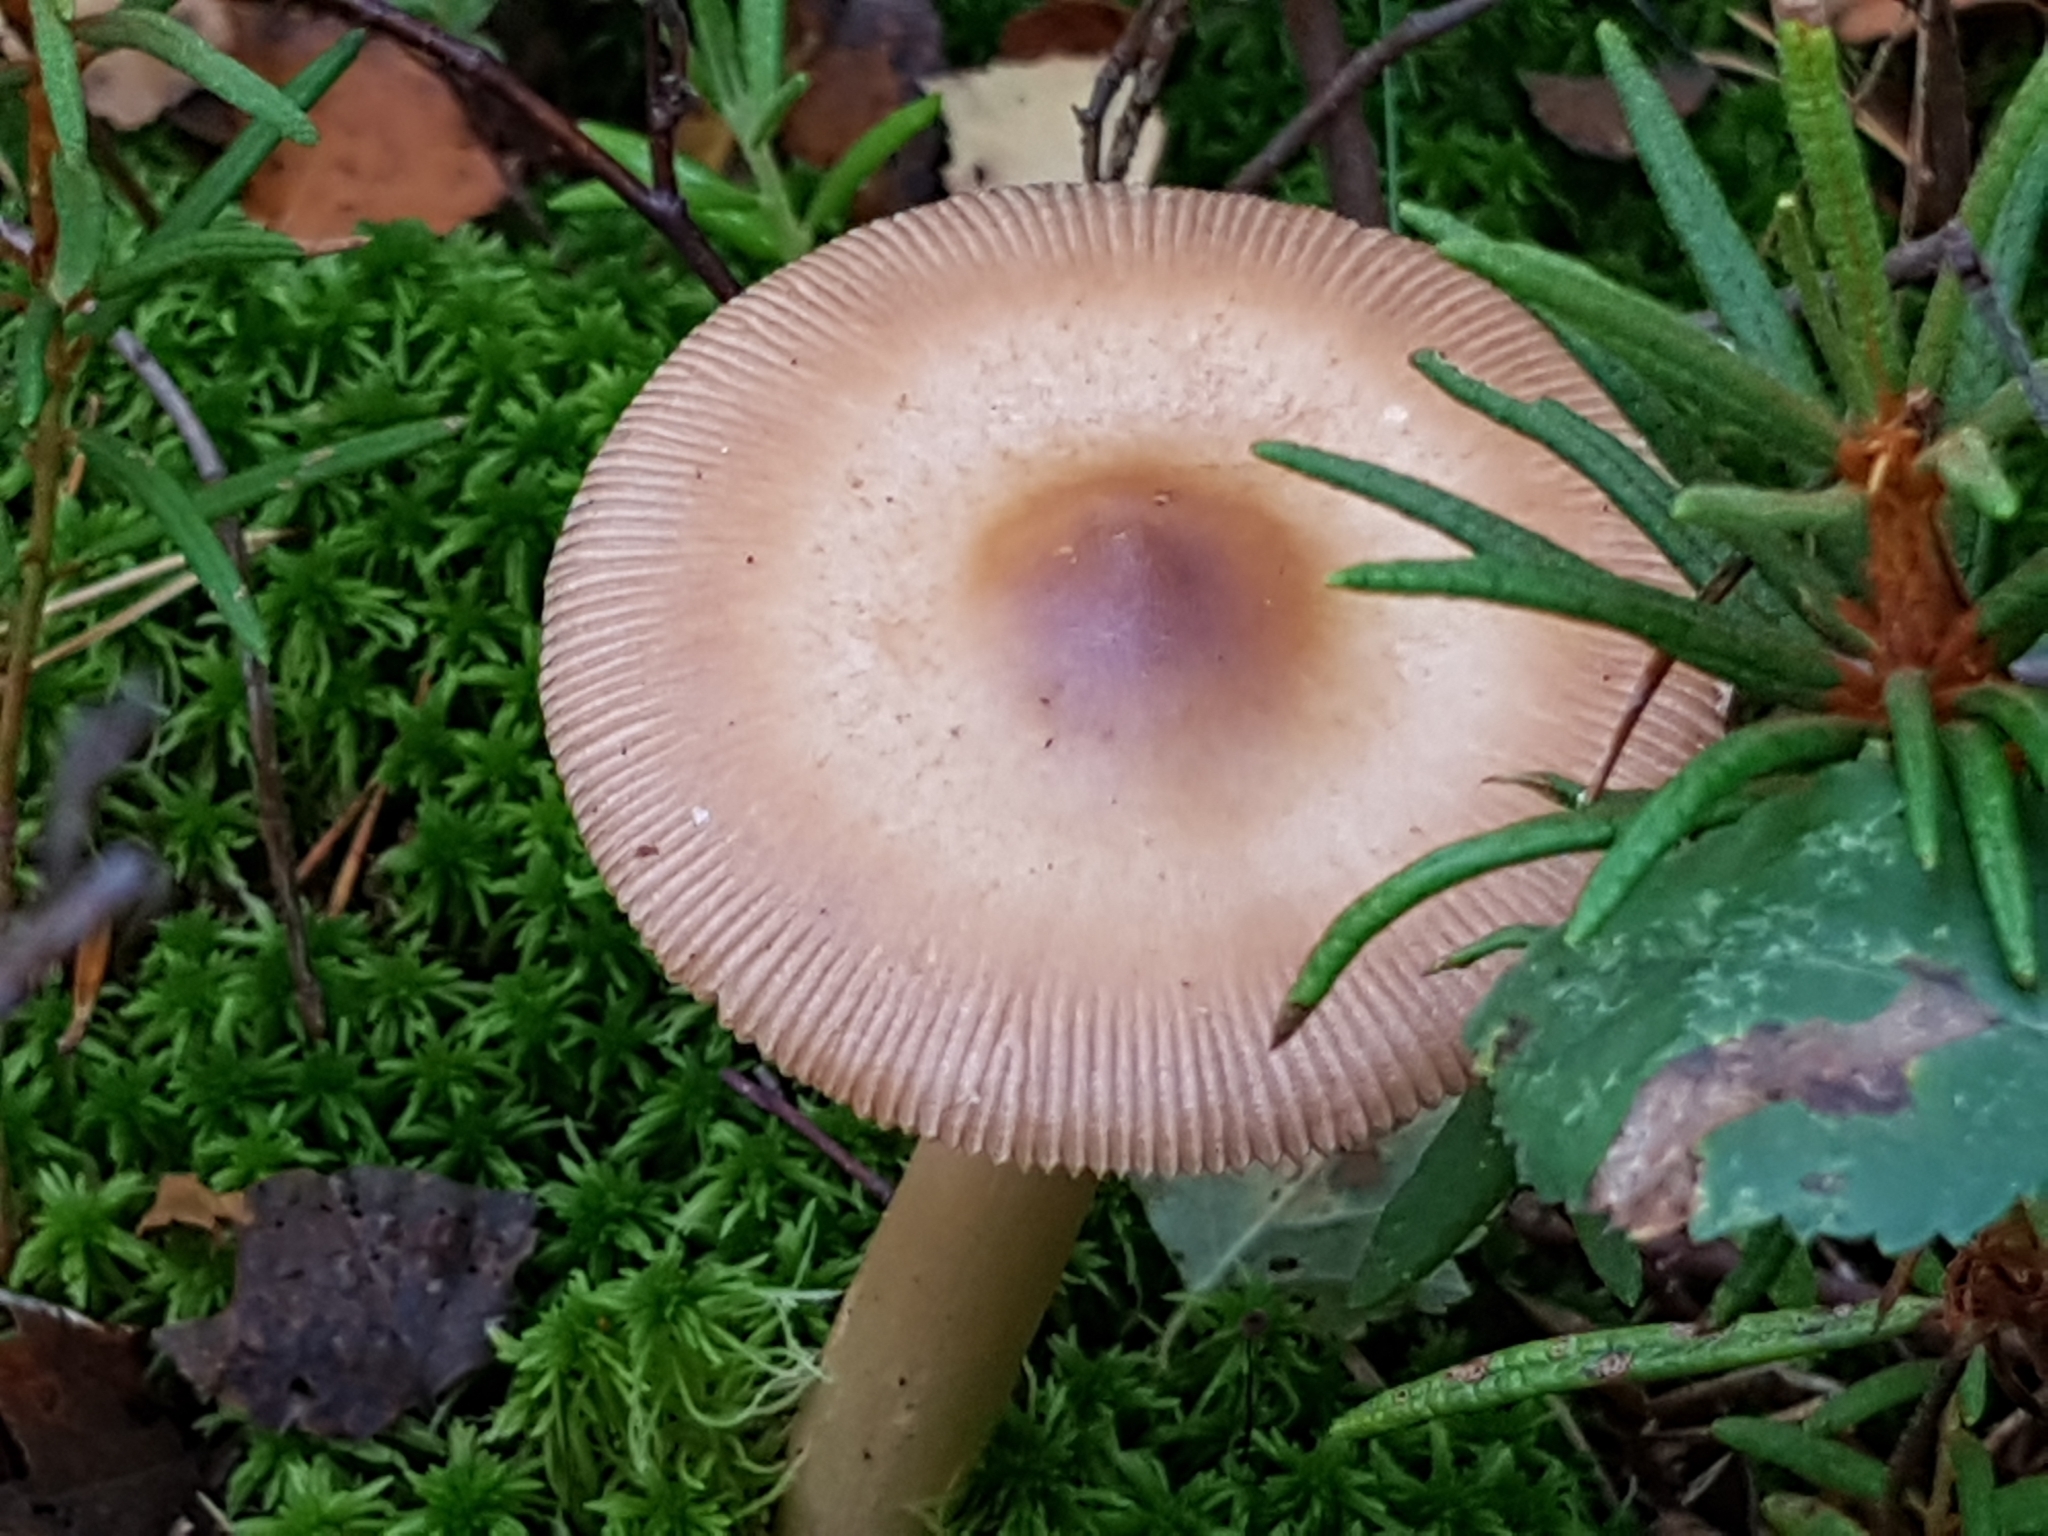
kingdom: Fungi
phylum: Basidiomycota
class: Agaricomycetes
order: Agaricales
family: Amanitaceae
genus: Amanita
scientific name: Amanita fulva
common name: Tawny grisette
